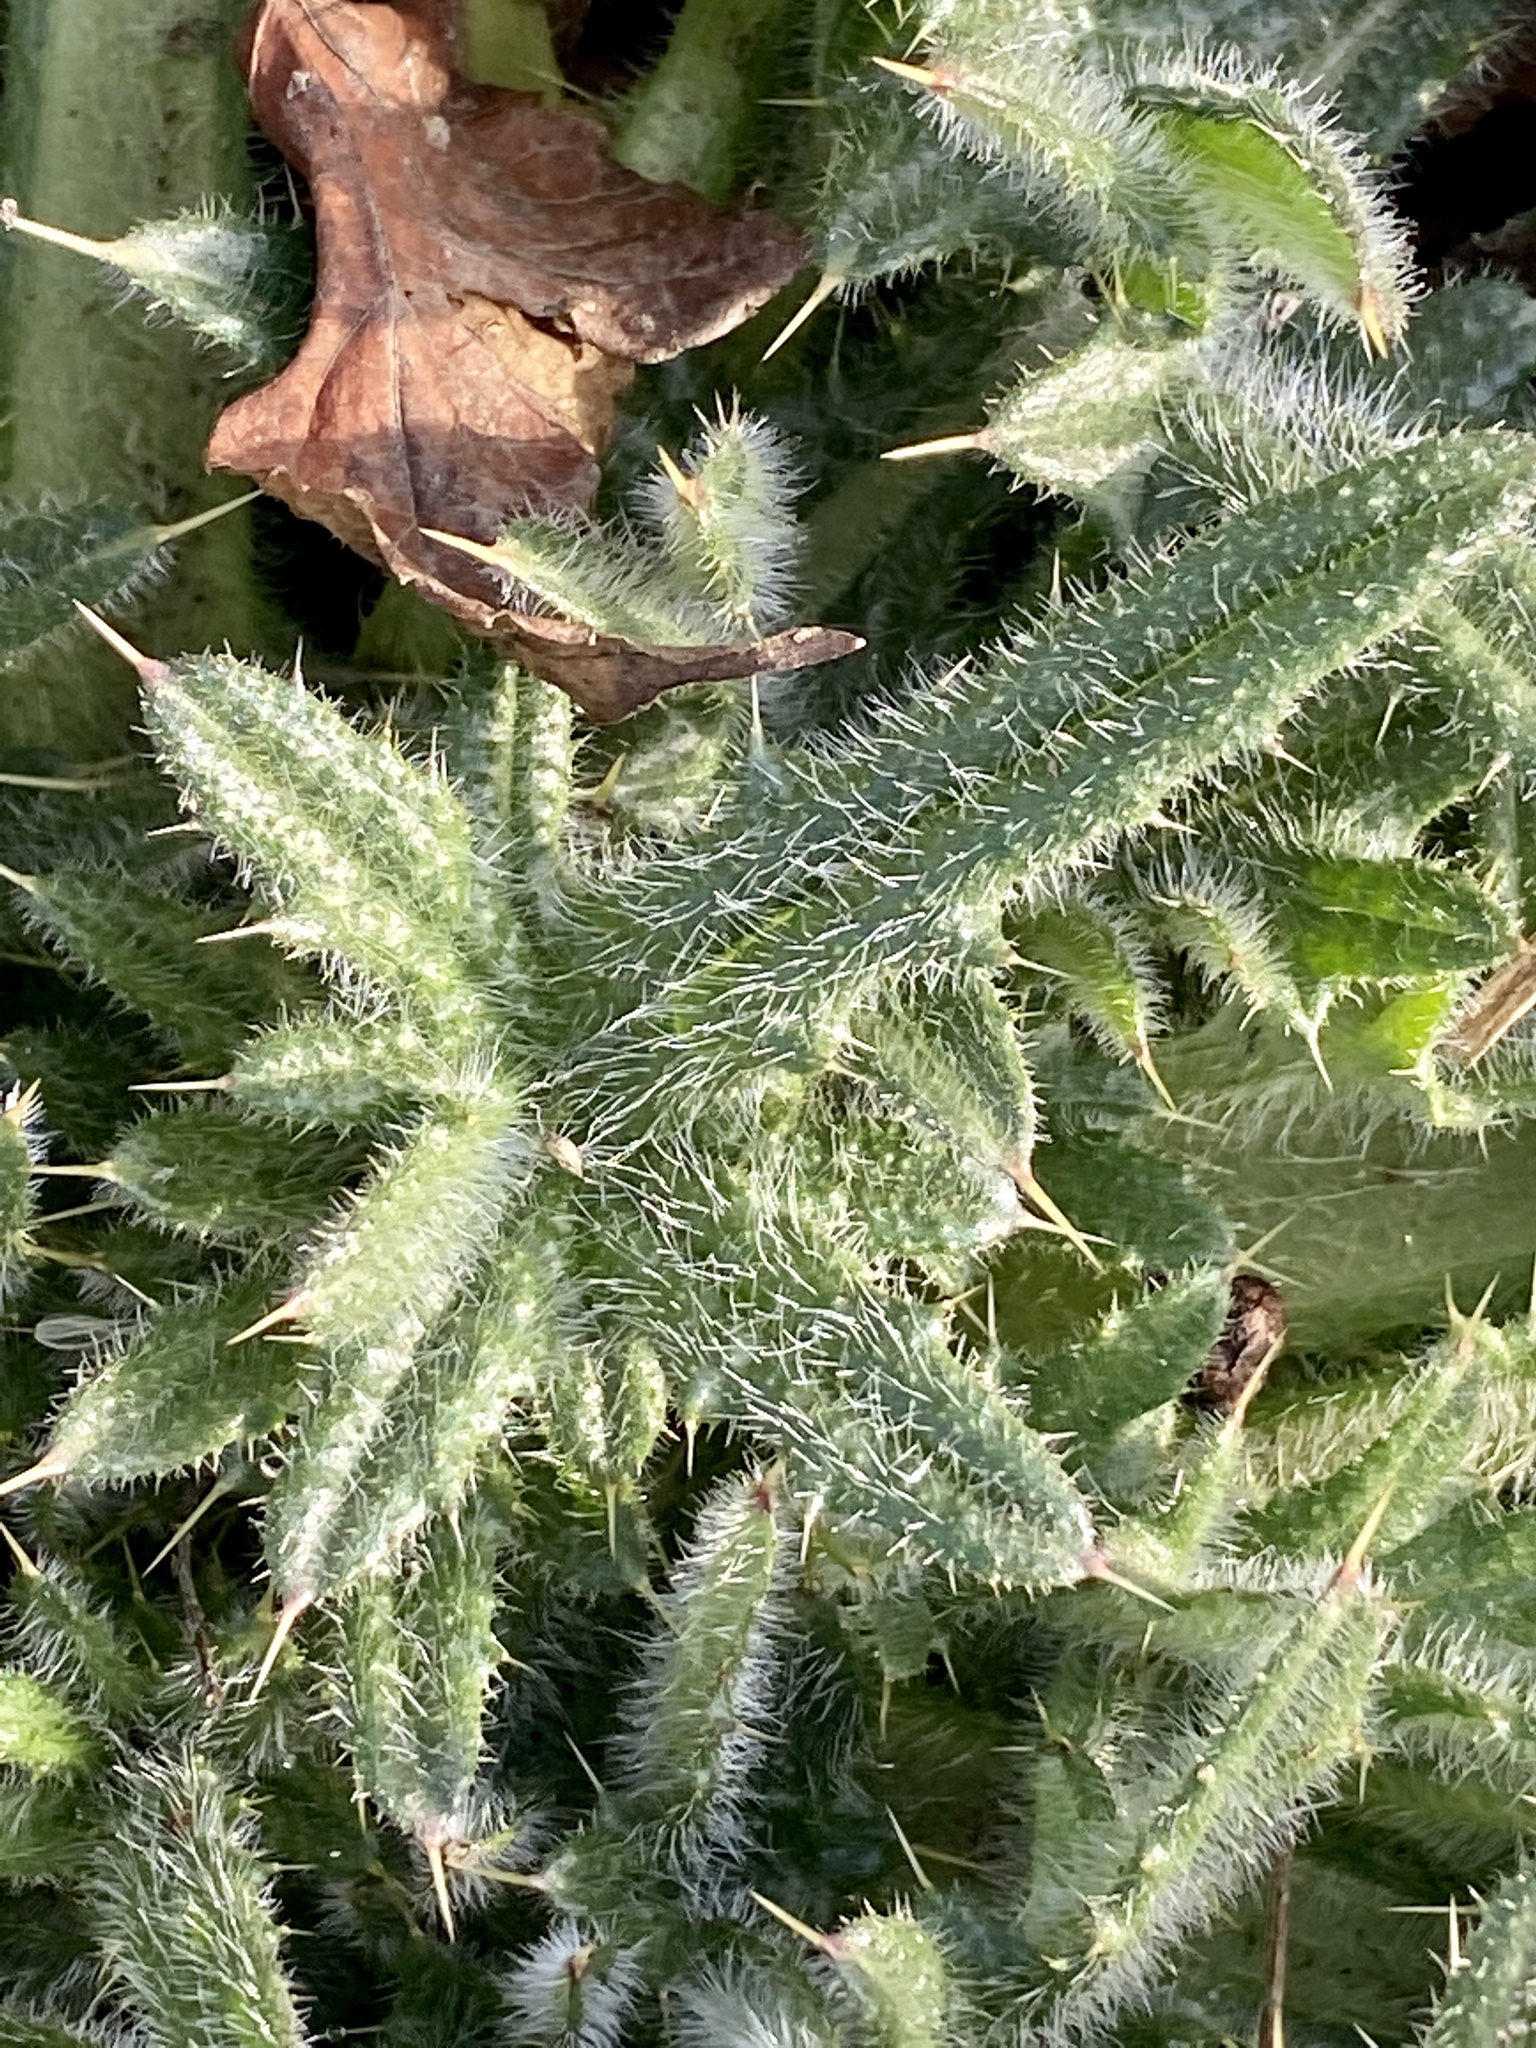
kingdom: Plantae
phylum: Tracheophyta
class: Magnoliopsida
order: Asterales
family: Asteraceae
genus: Cirsium
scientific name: Cirsium vulgare
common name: Bull thistle
